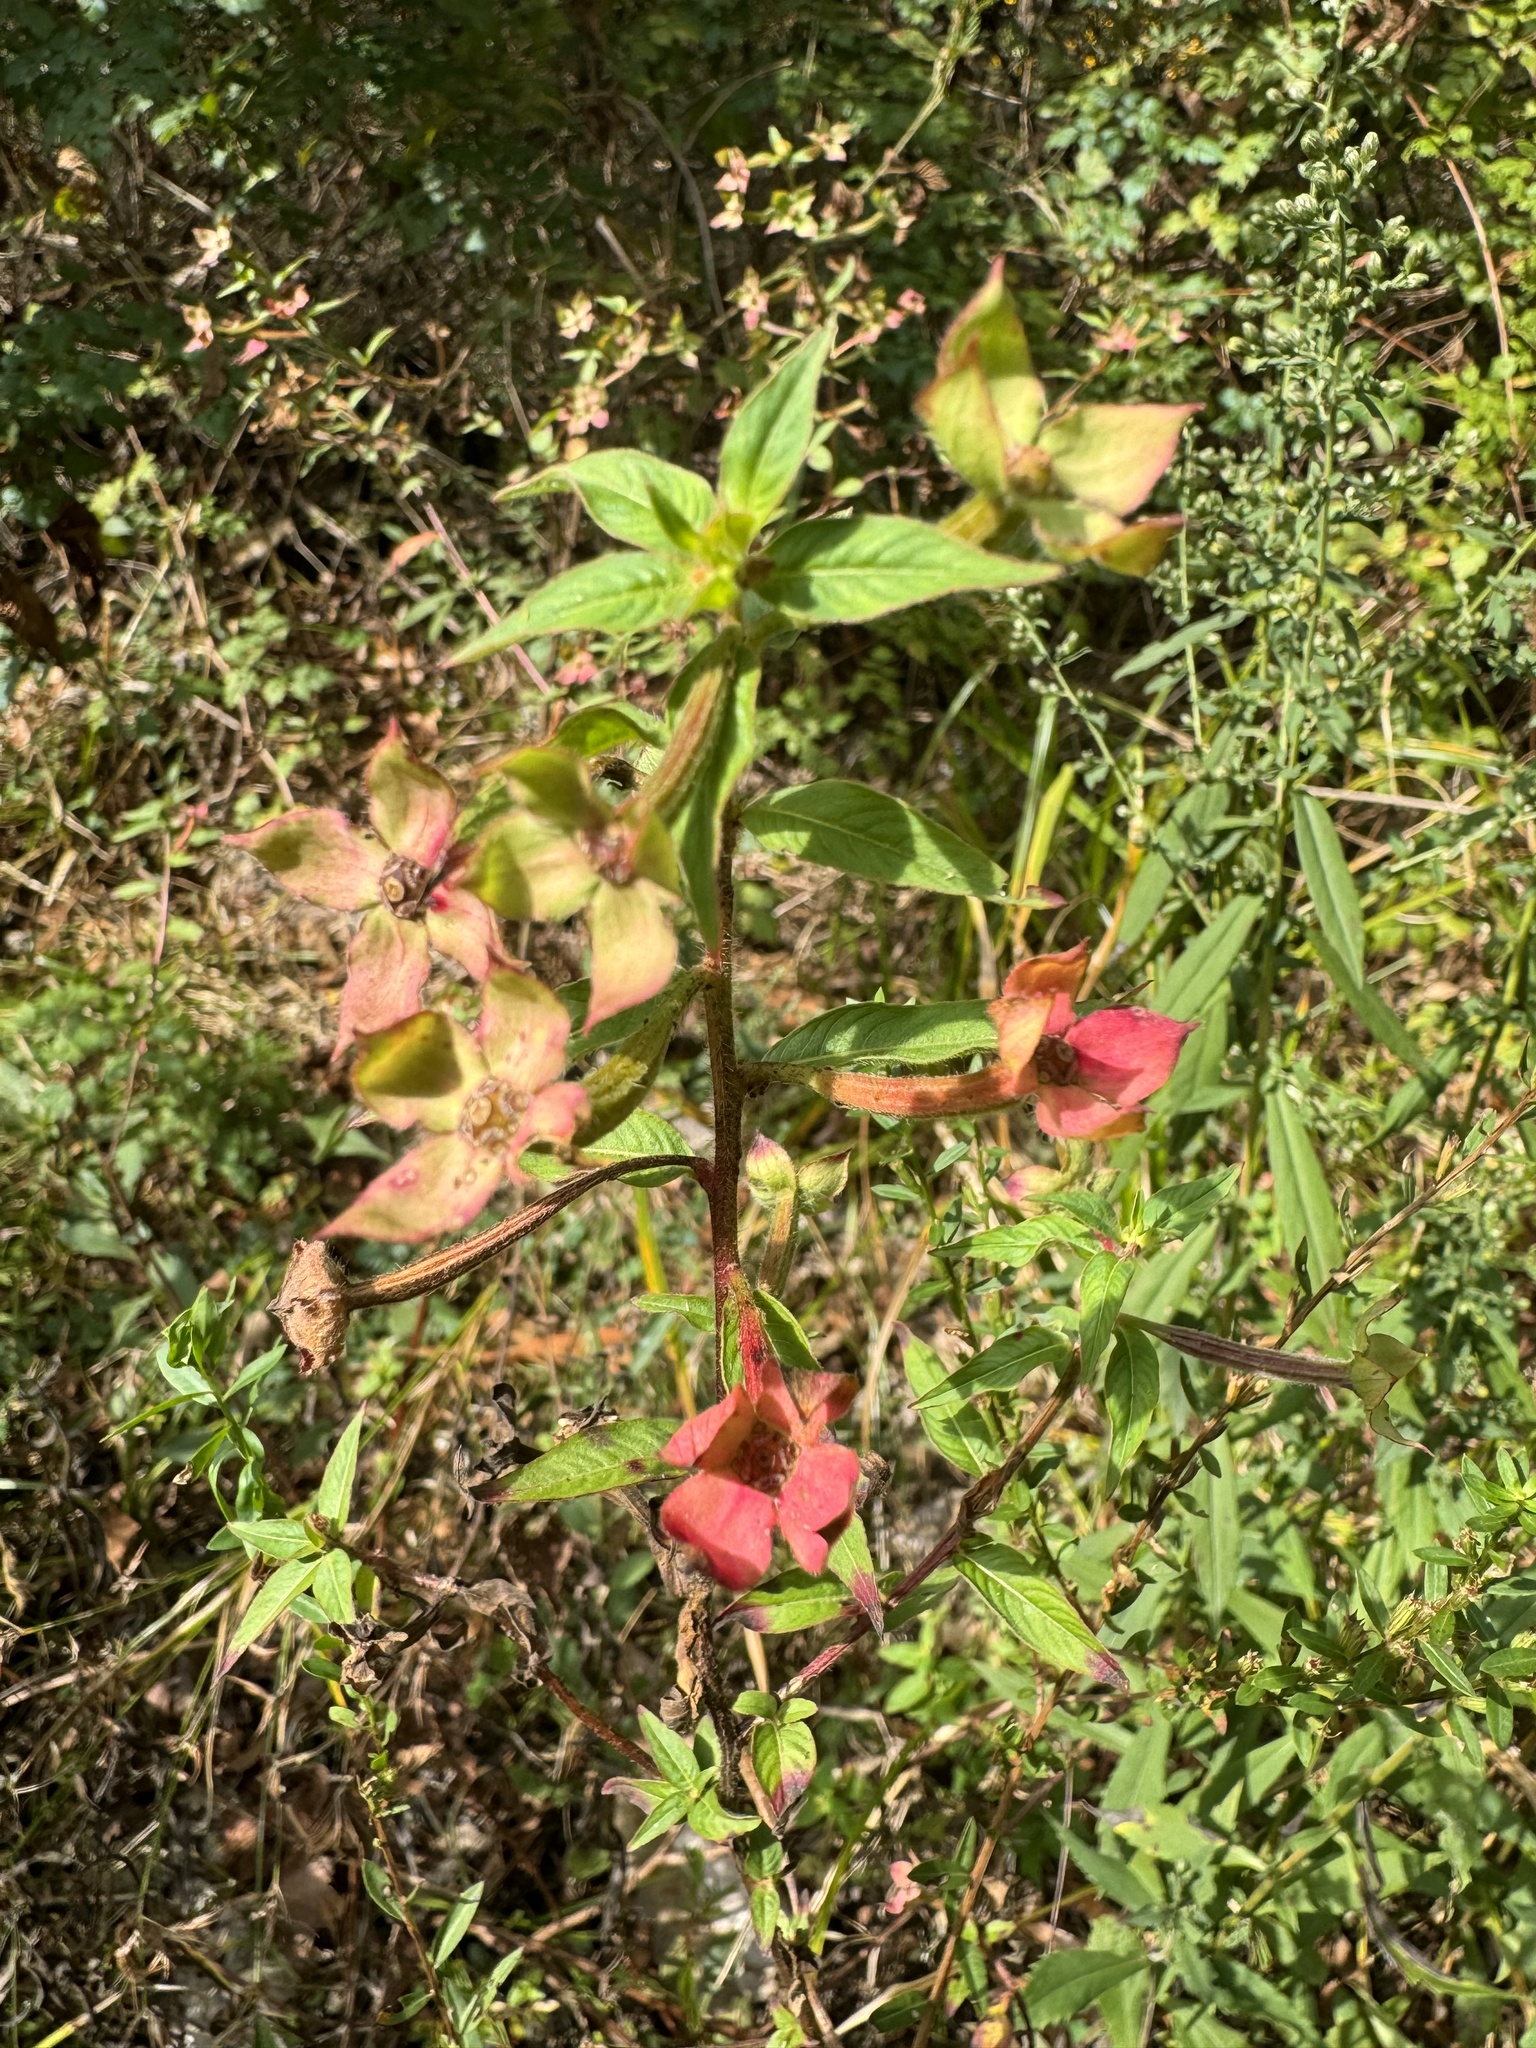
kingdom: Plantae
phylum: Tracheophyta
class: Magnoliopsida
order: Myrtales
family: Onagraceae
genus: Ludwigia
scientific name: Ludwigia octovalvis
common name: Water-primrose
